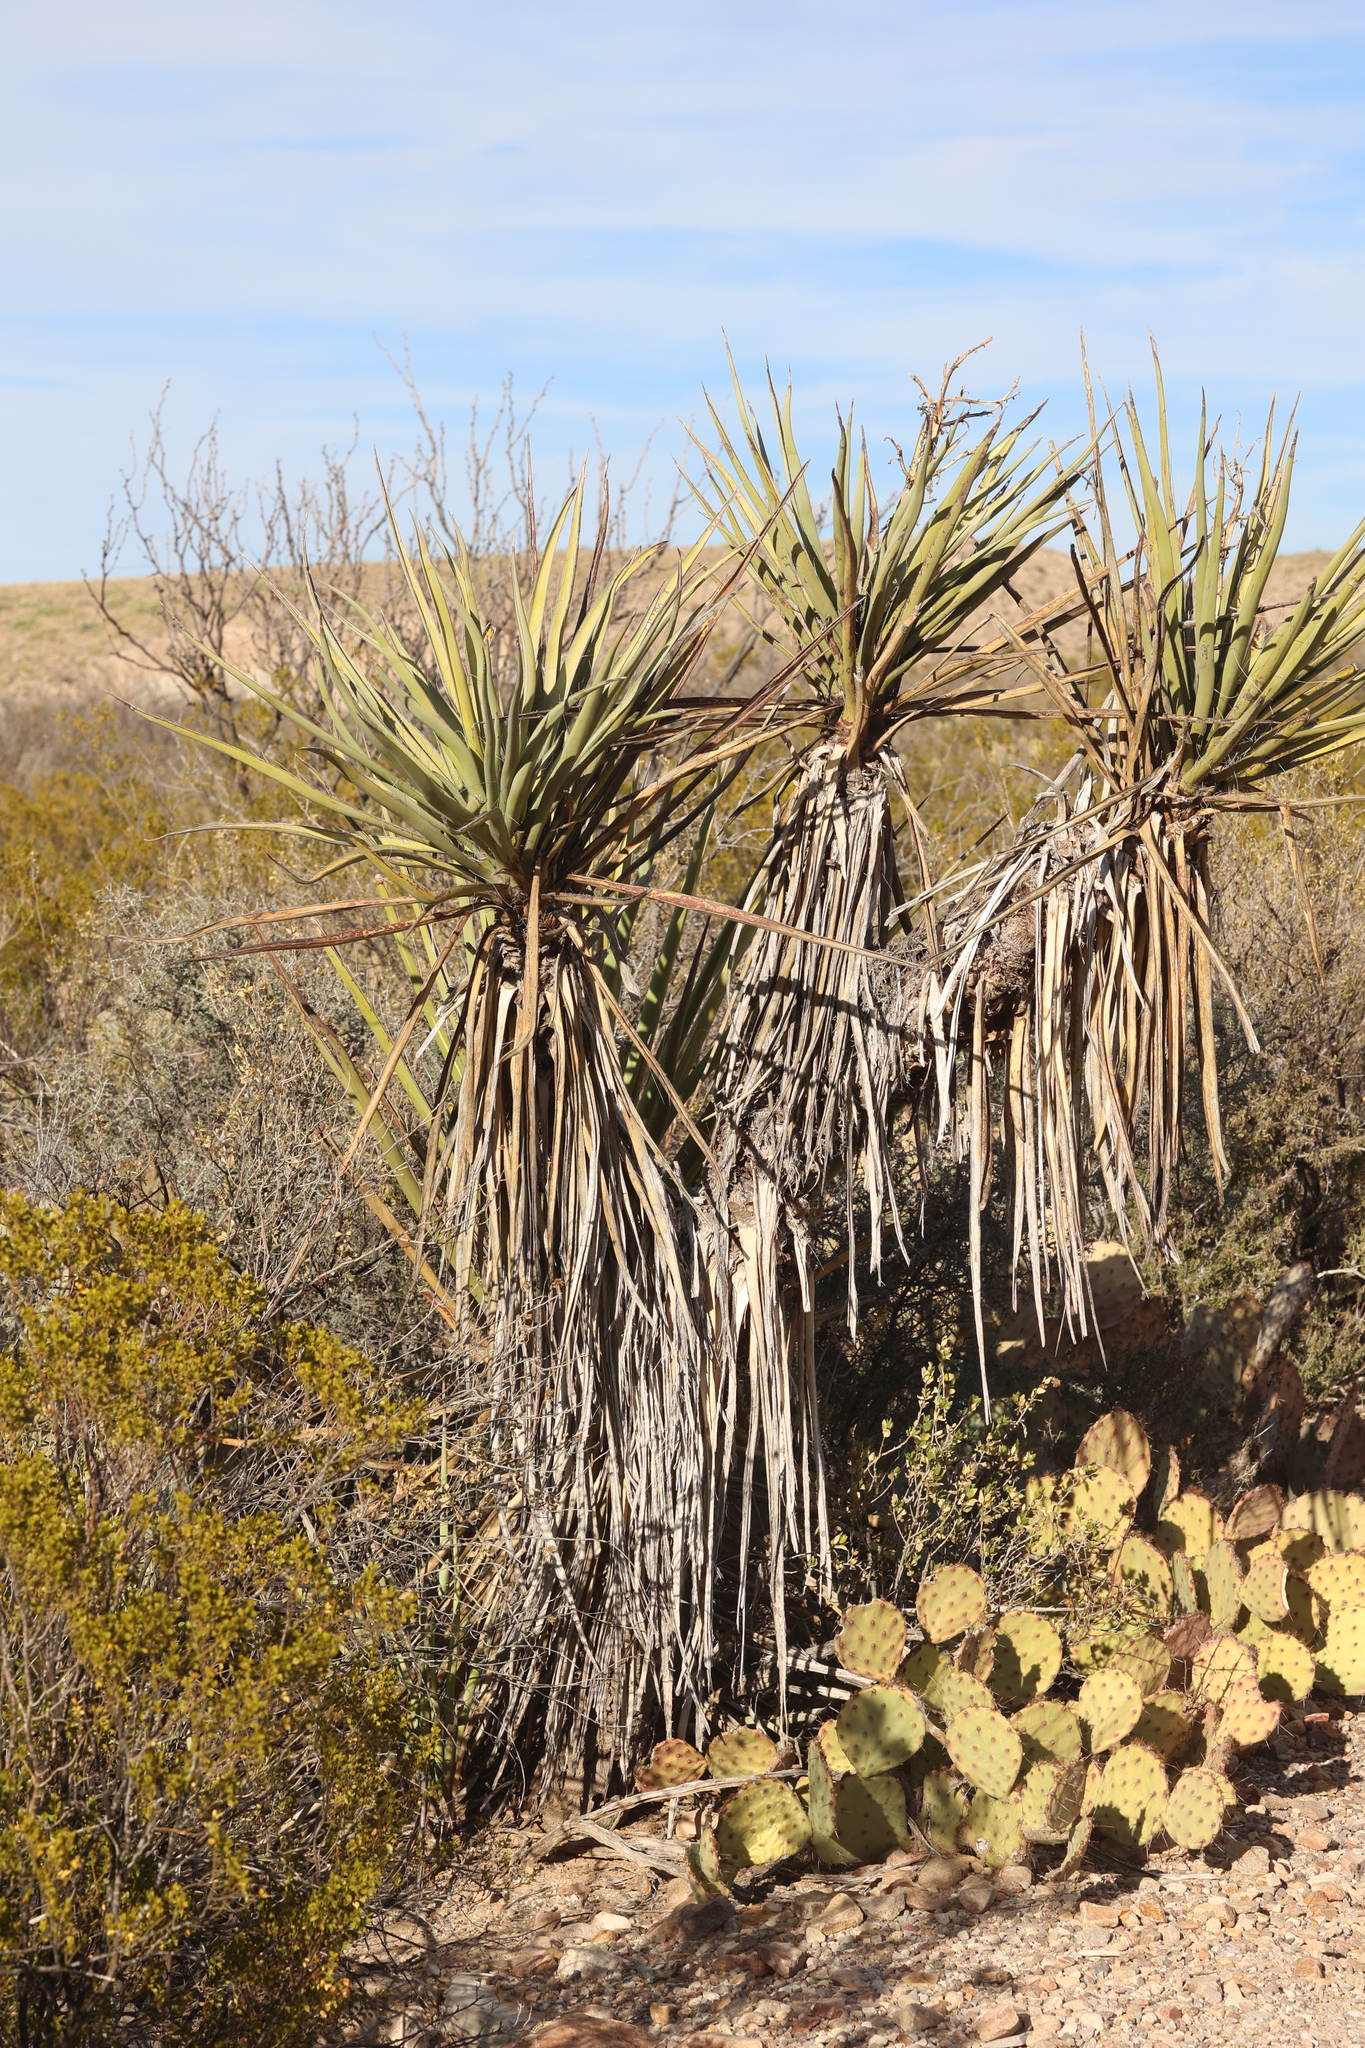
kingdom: Plantae
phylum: Tracheophyta
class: Liliopsida
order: Asparagales
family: Asparagaceae
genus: Yucca
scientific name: Yucca treculiana
